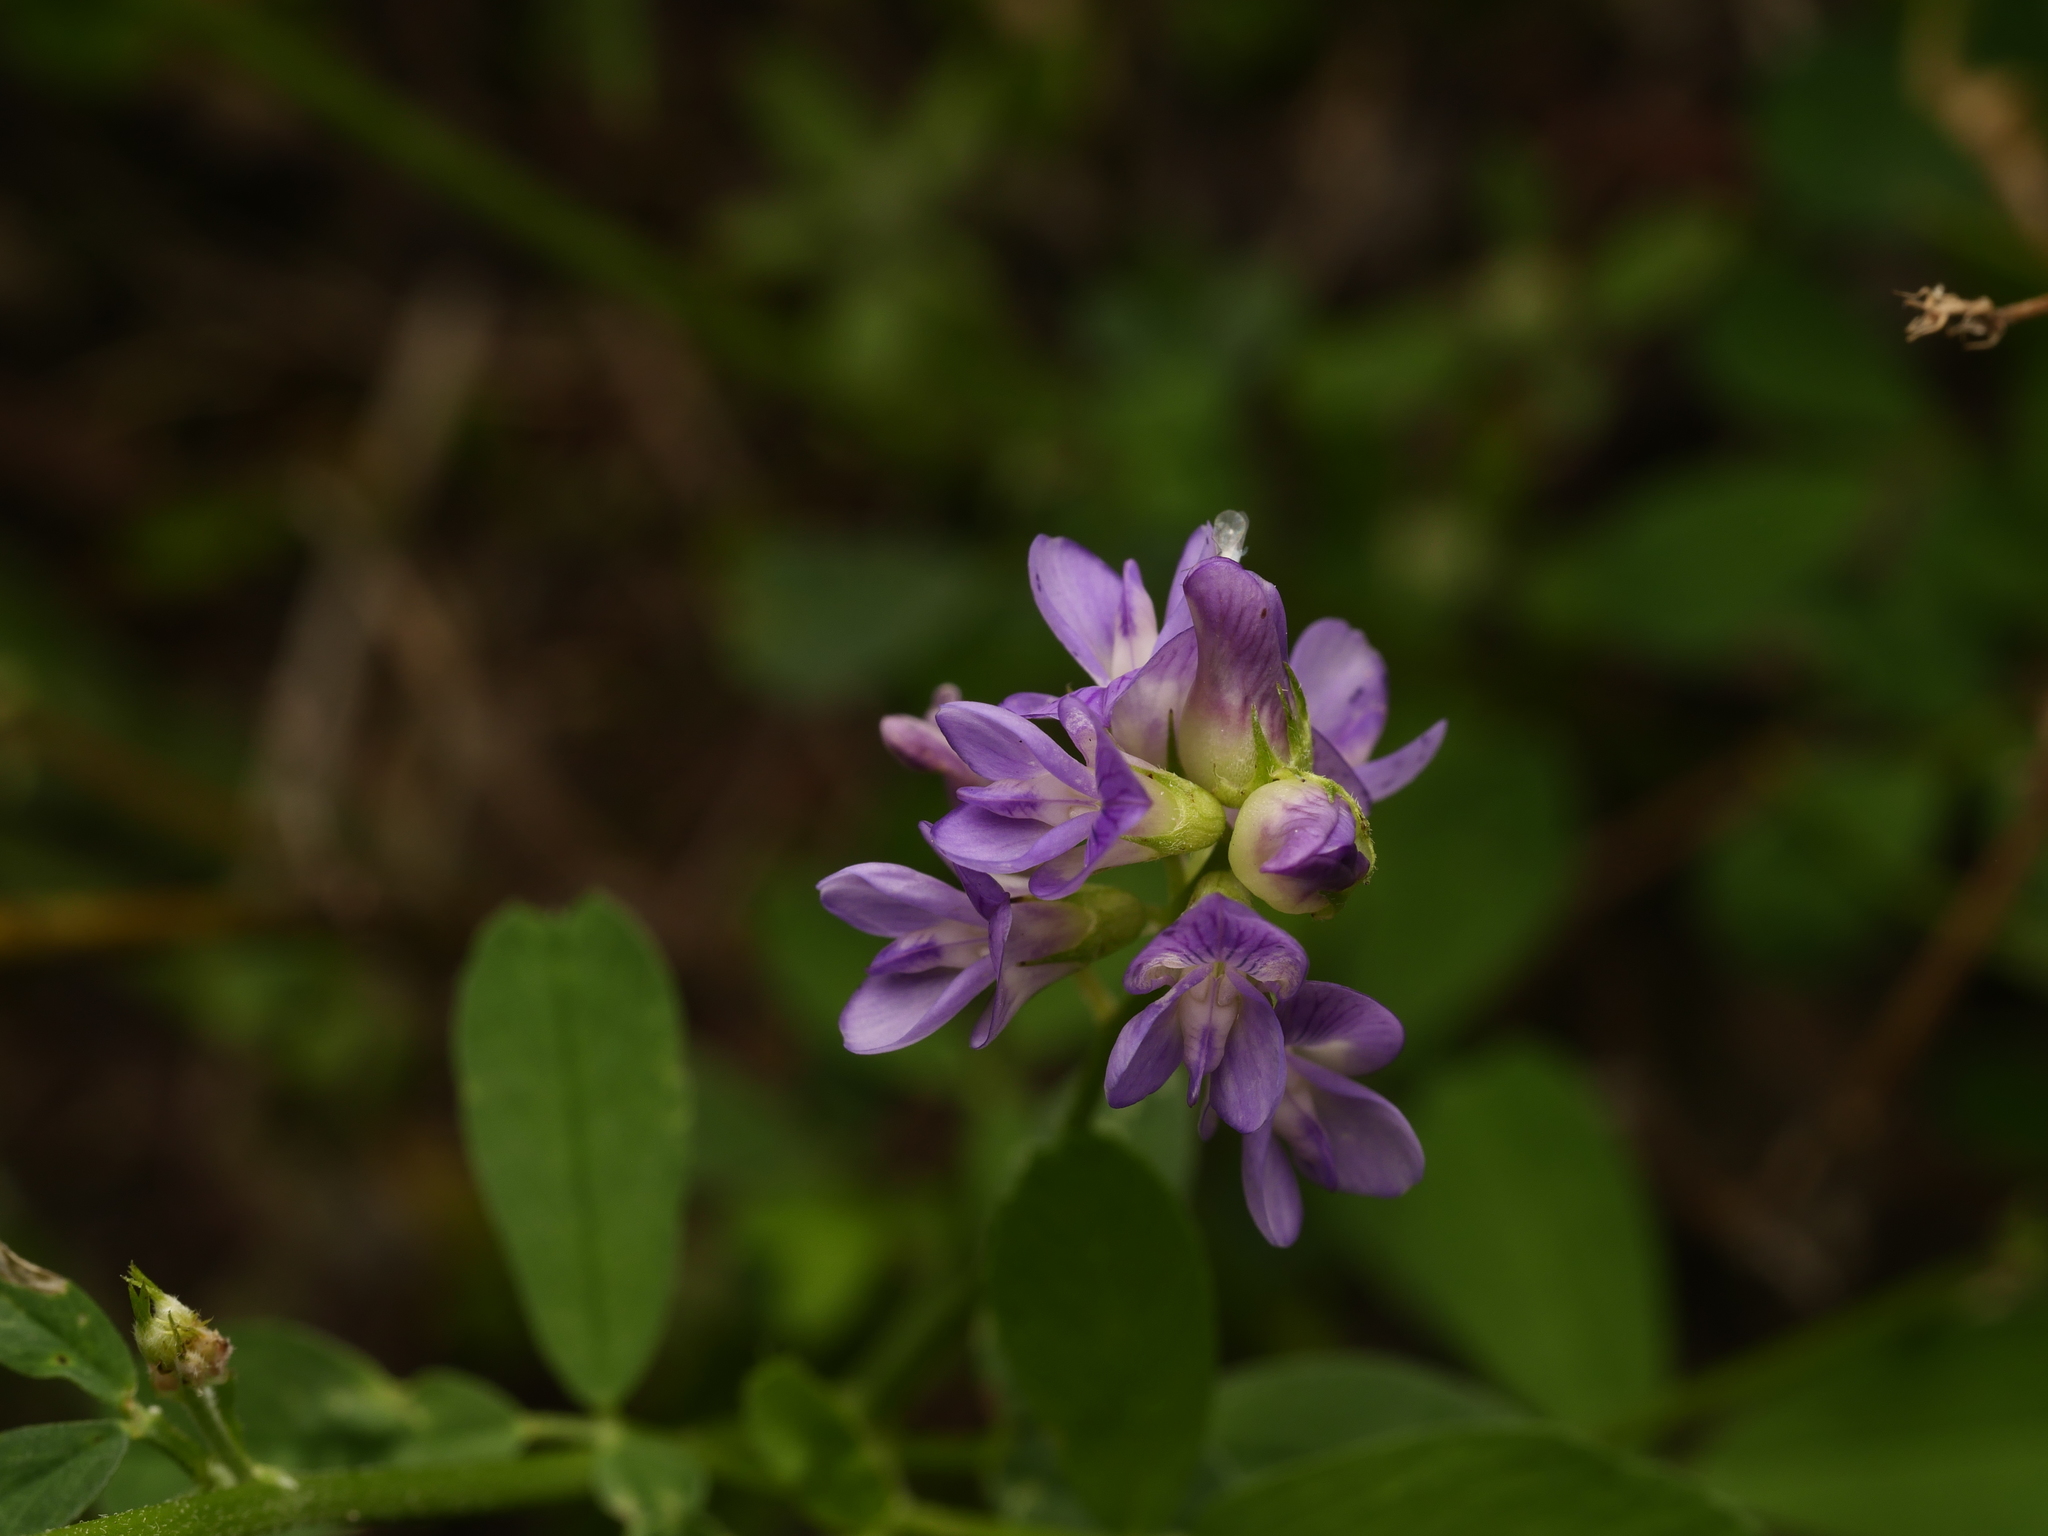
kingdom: Plantae
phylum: Tracheophyta
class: Magnoliopsida
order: Fabales
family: Fabaceae
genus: Medicago
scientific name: Medicago sativa
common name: Alfalfa
